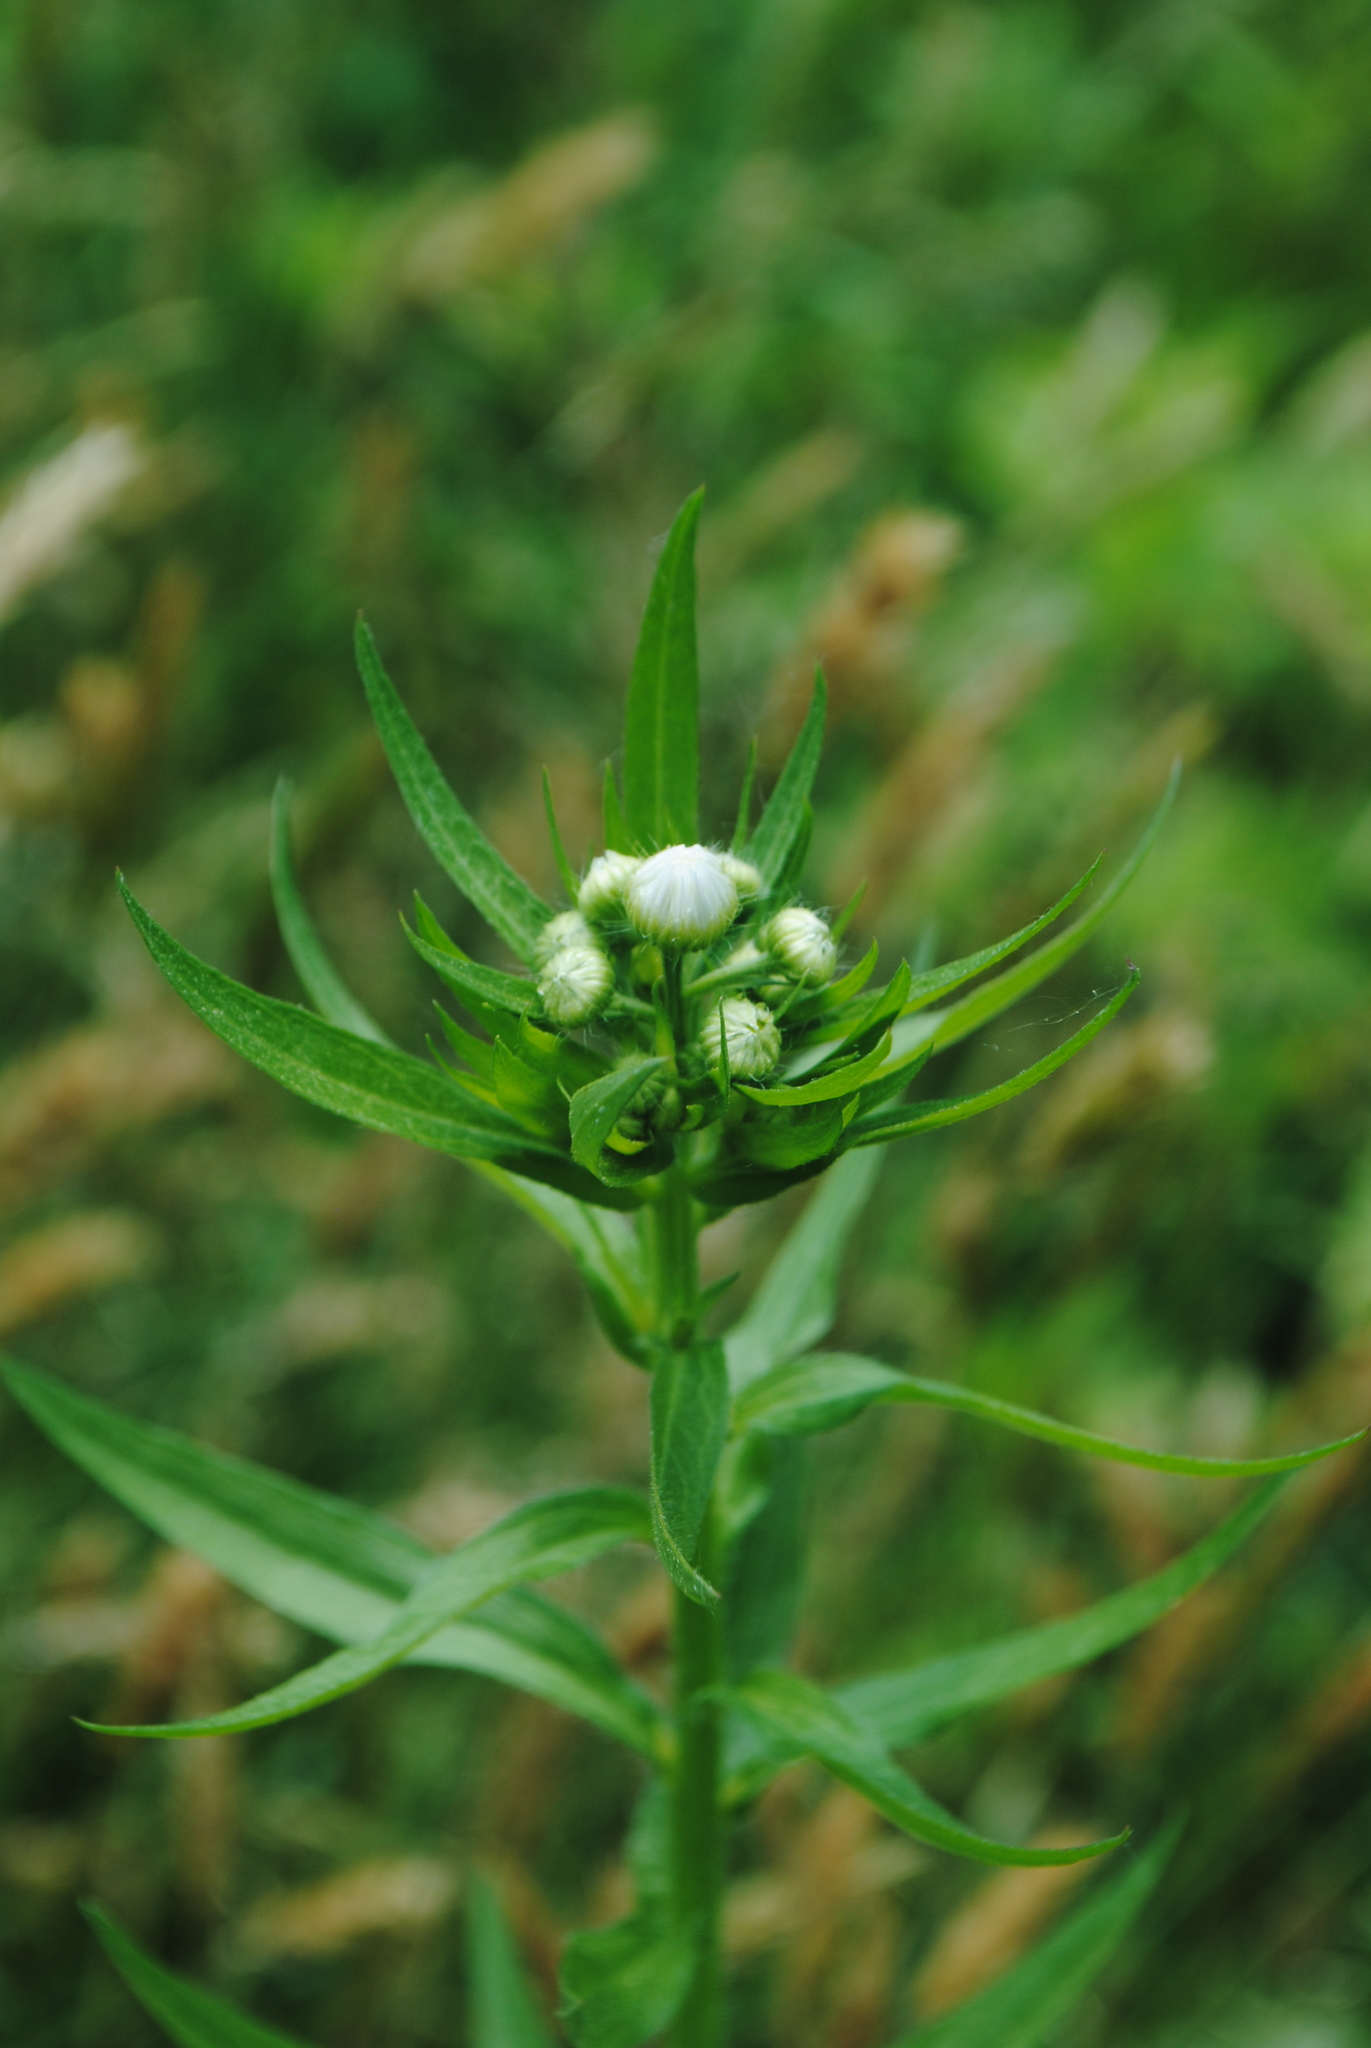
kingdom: Plantae
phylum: Tracheophyta
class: Magnoliopsida
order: Asterales
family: Asteraceae
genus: Erigeron
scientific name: Erigeron annuus
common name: Tall fleabane
